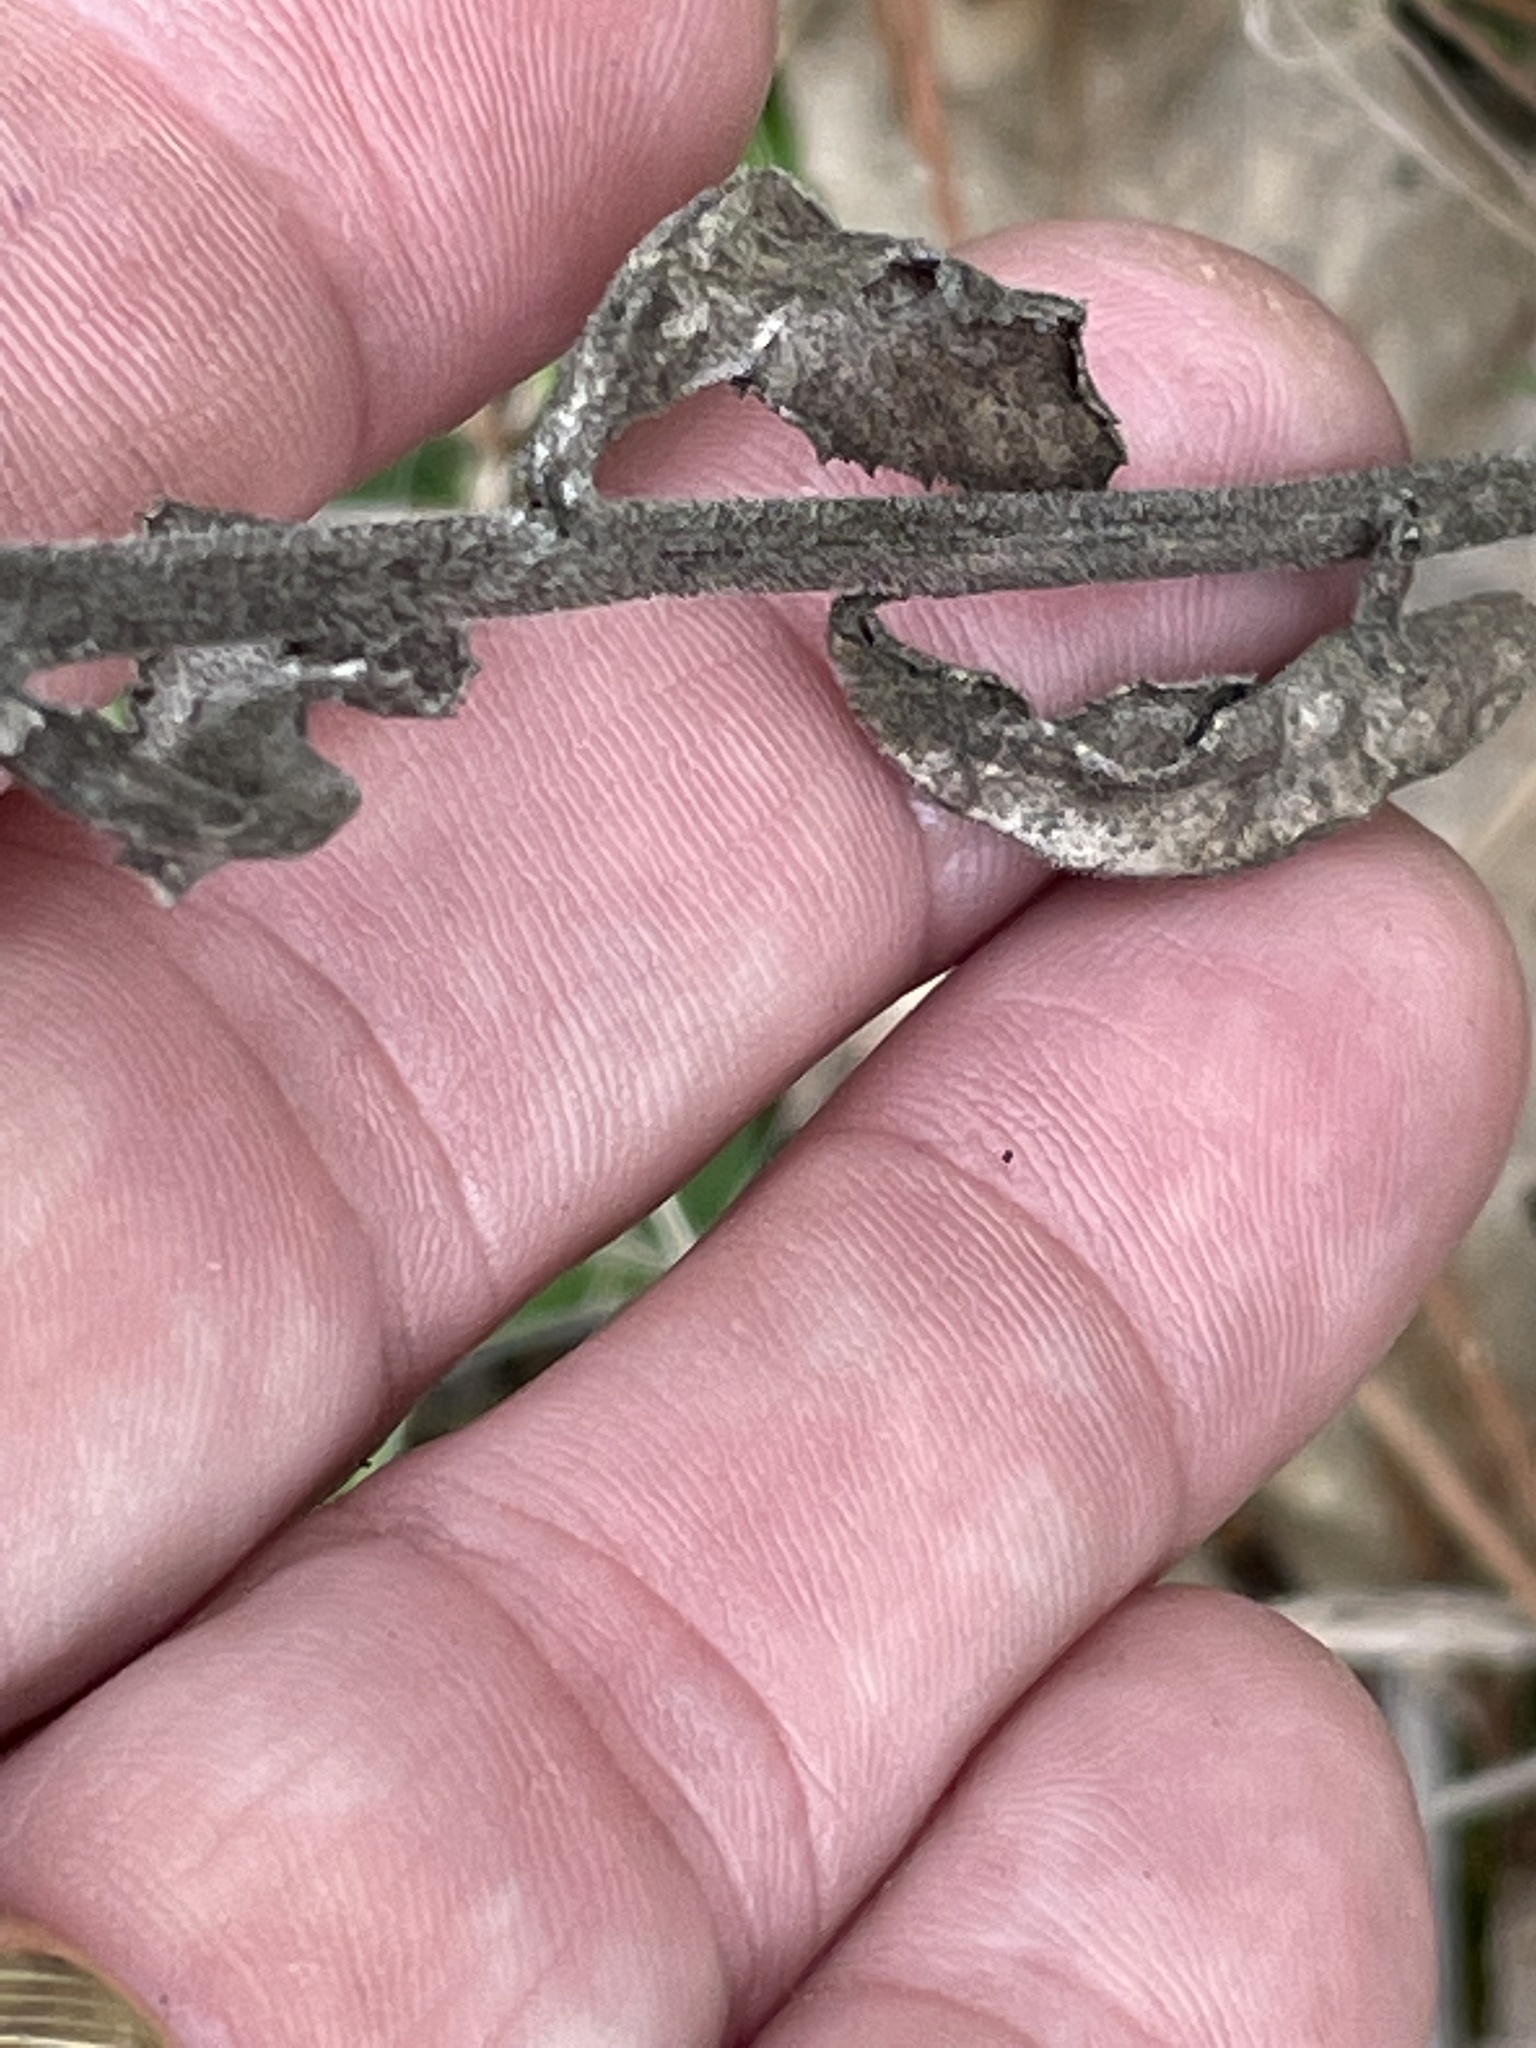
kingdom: Plantae
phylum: Tracheophyta
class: Magnoliopsida
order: Asterales
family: Campanulaceae
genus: Lobelia
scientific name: Lobelia puberula
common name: Purple dewdrop
